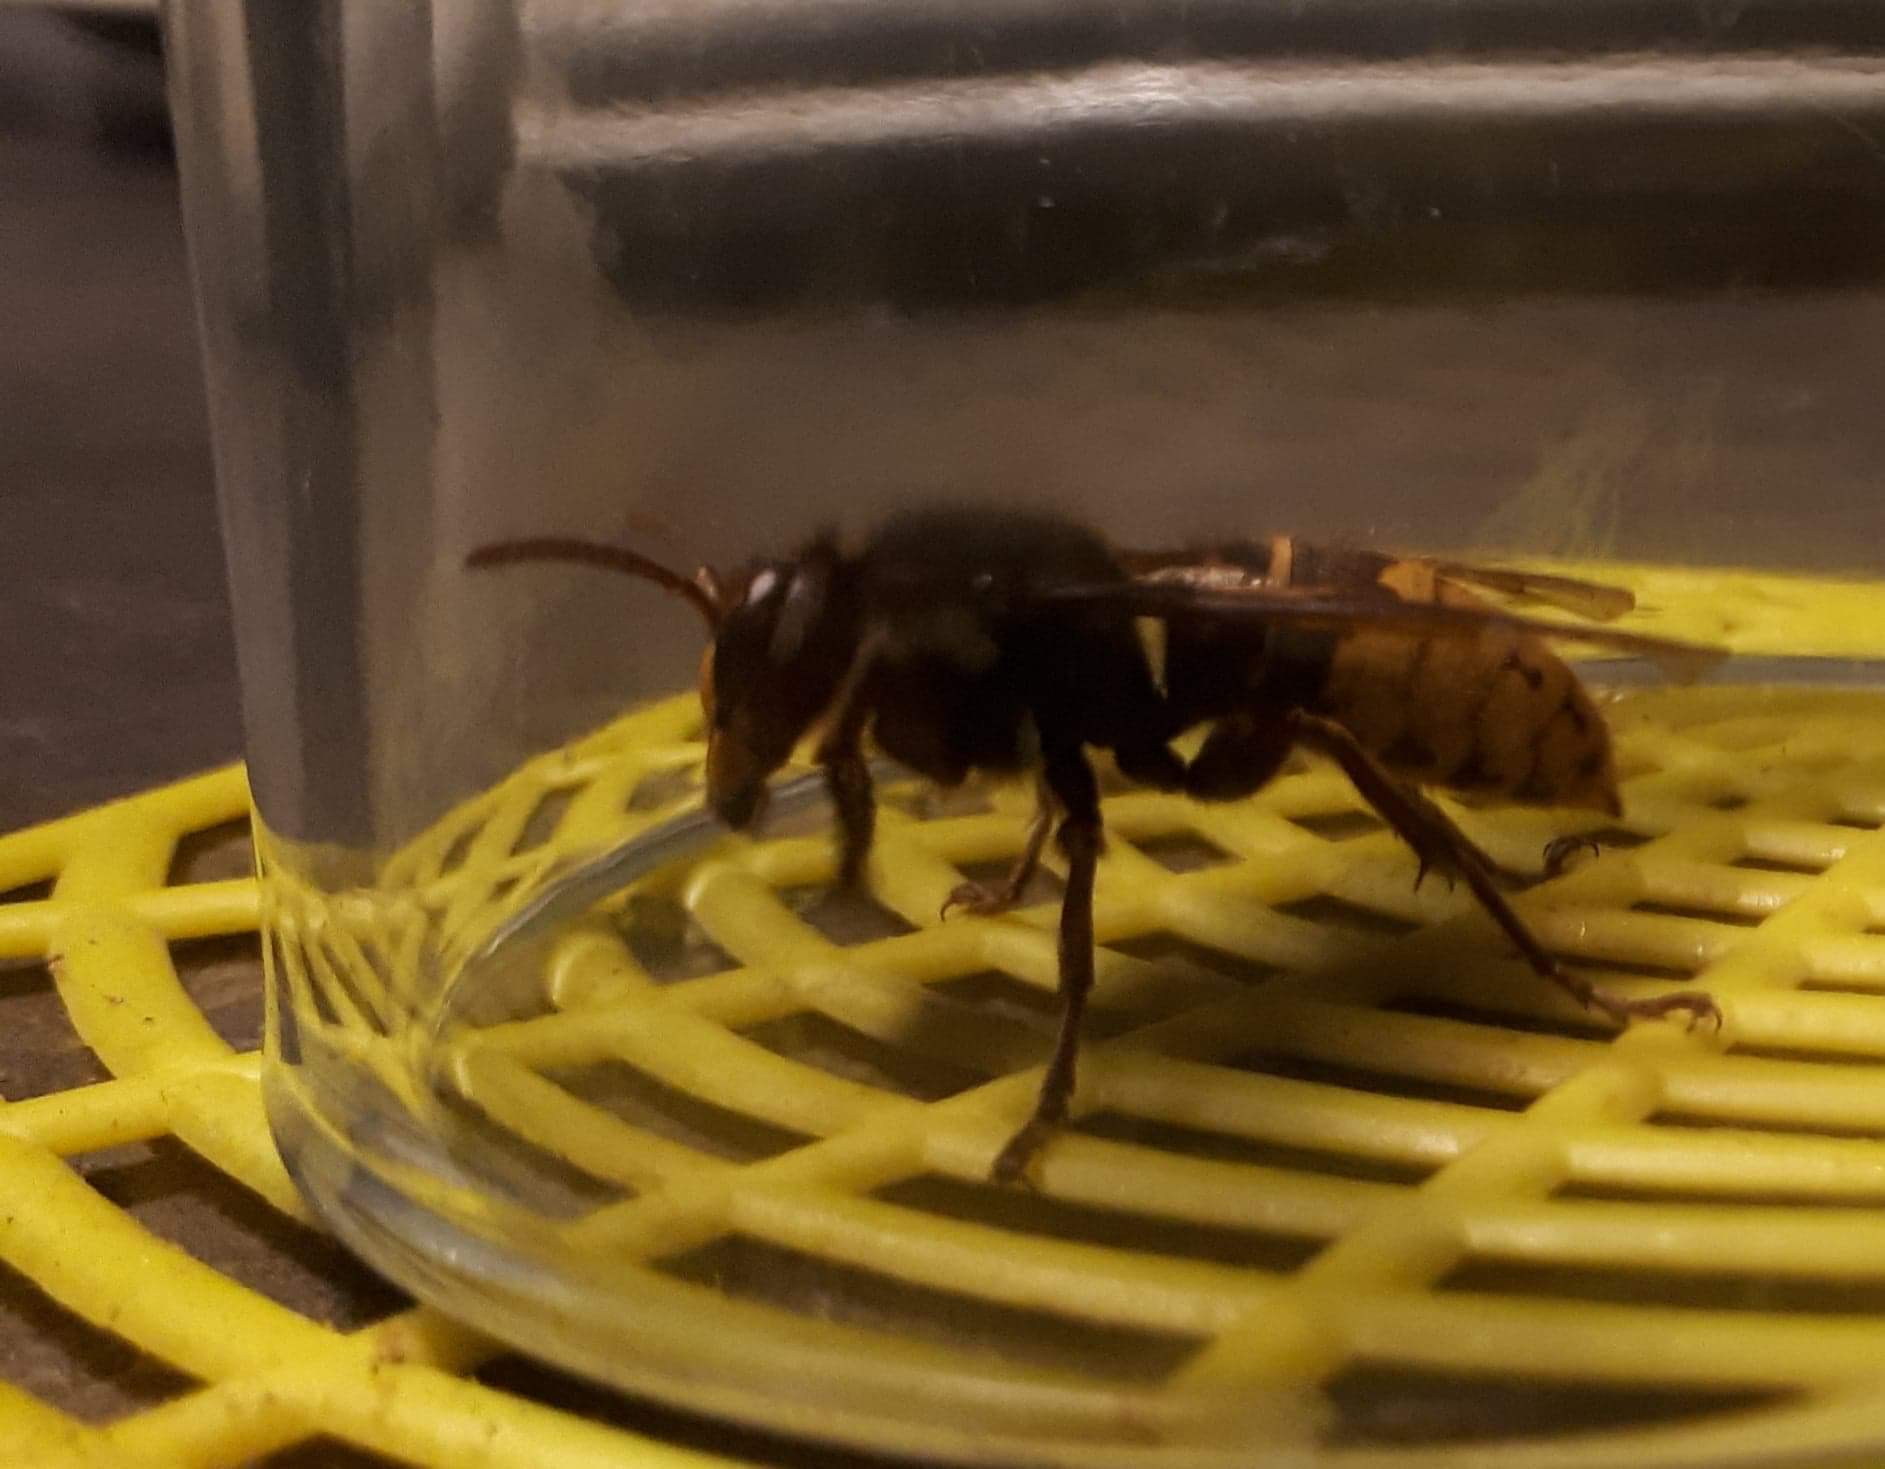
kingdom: Animalia
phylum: Arthropoda
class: Insecta
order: Hymenoptera
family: Vespidae
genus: Vespa
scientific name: Vespa crabro
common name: Hornet
